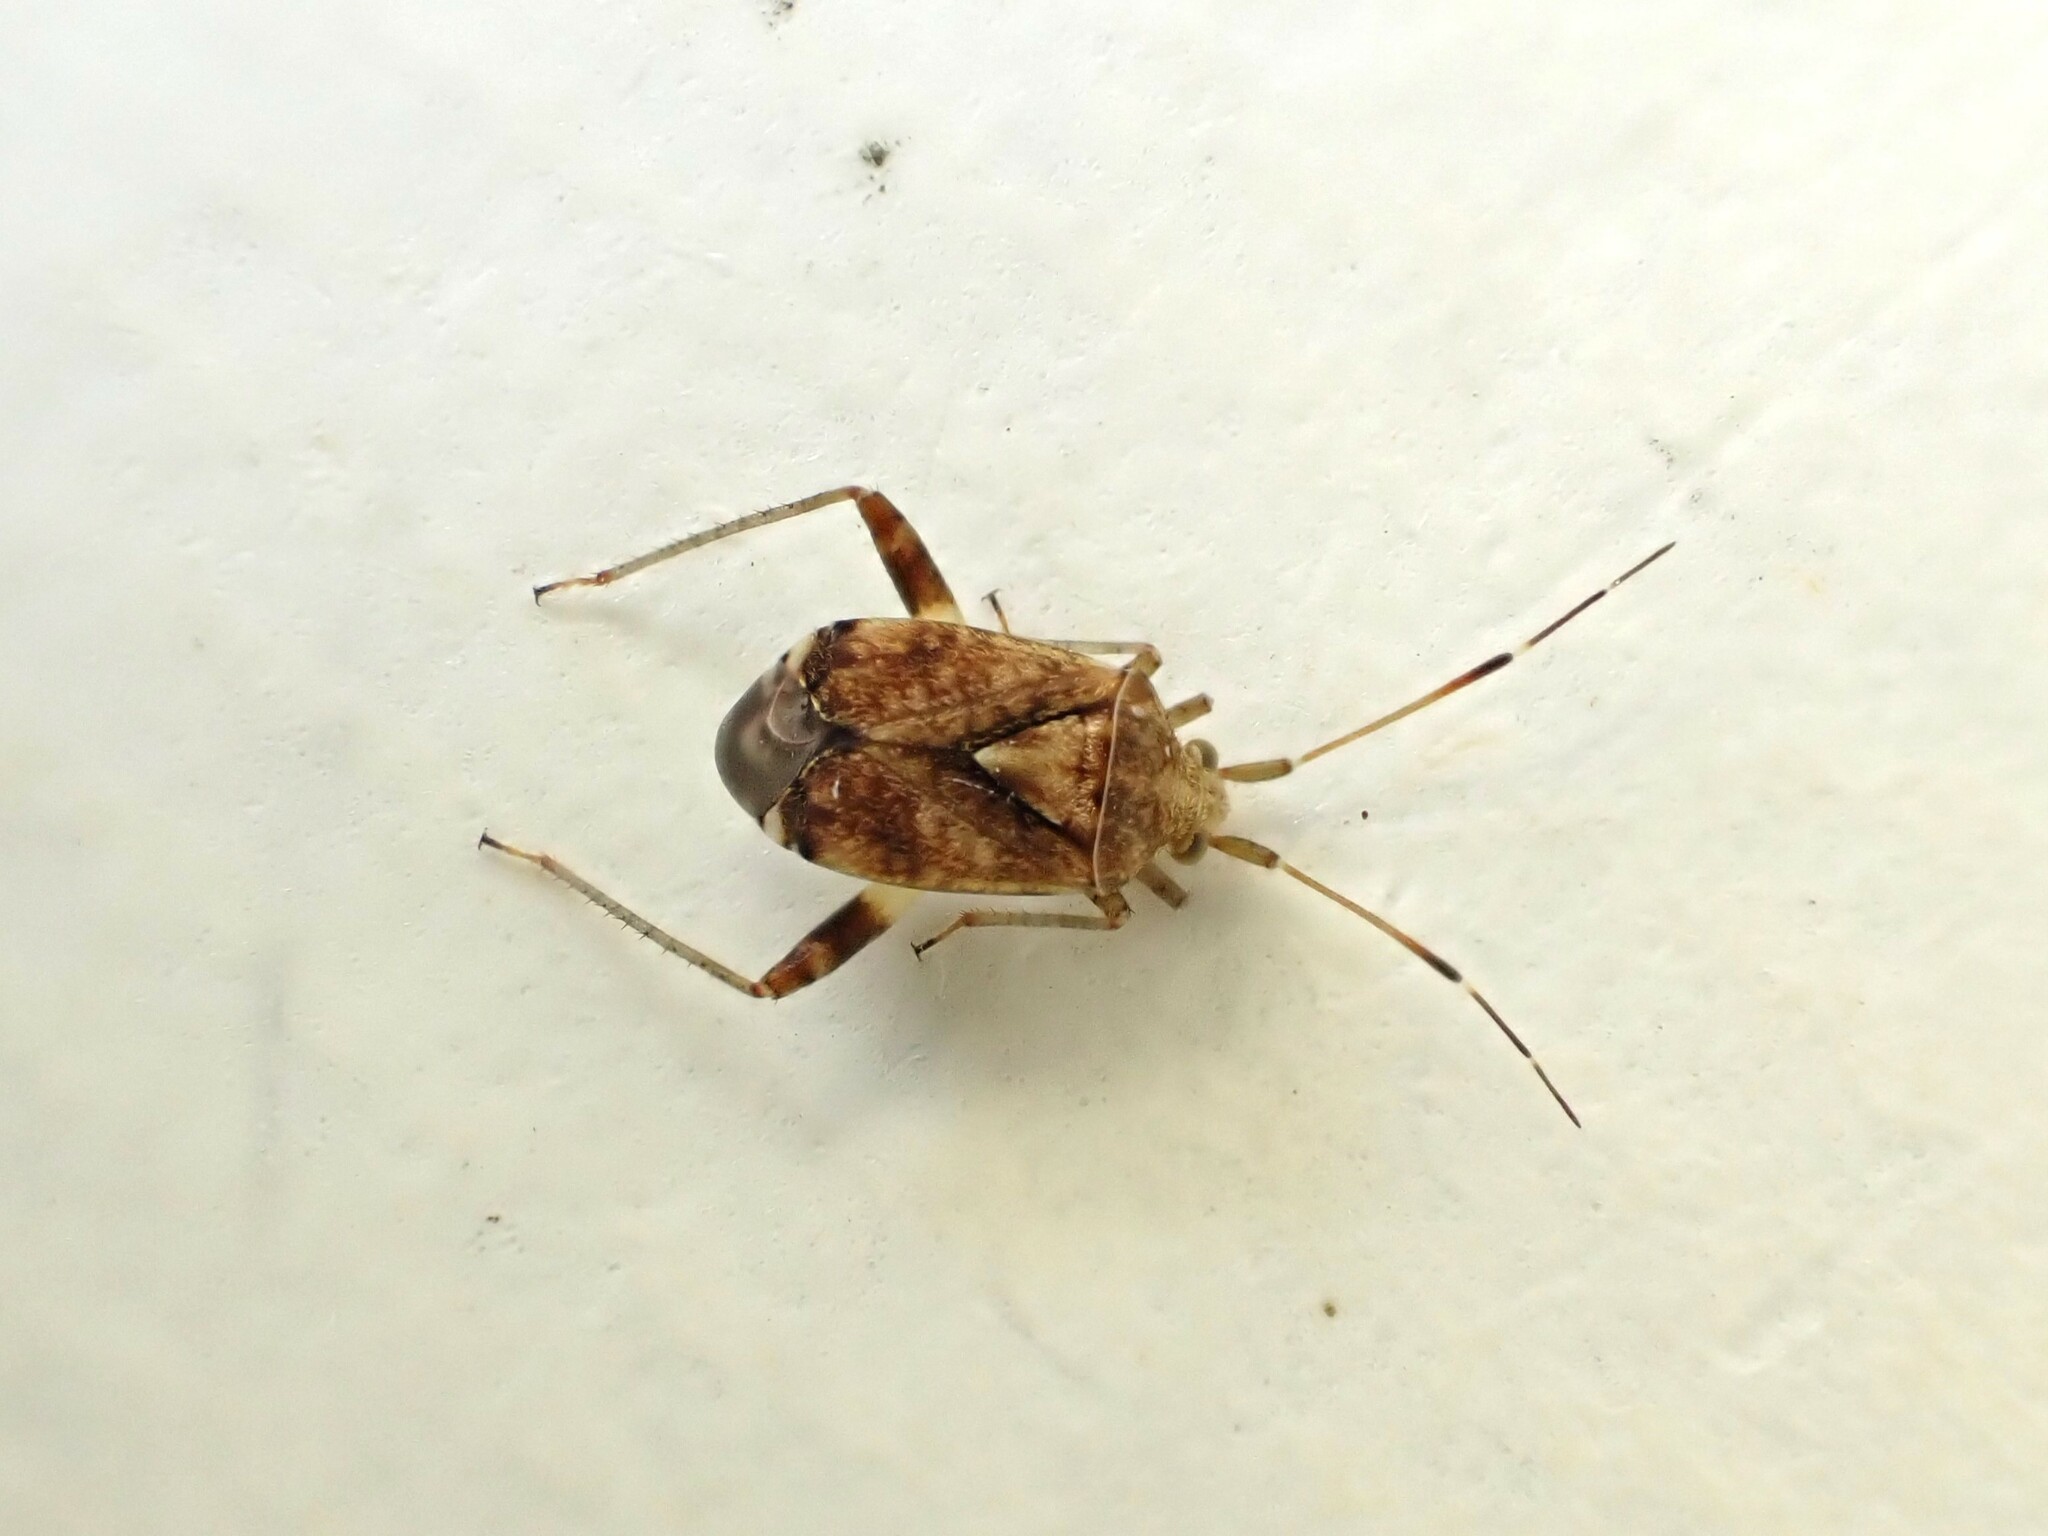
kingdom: Animalia
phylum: Arthropoda
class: Insecta
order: Hemiptera
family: Miridae
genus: Sidnia
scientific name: Sidnia kinbergi
